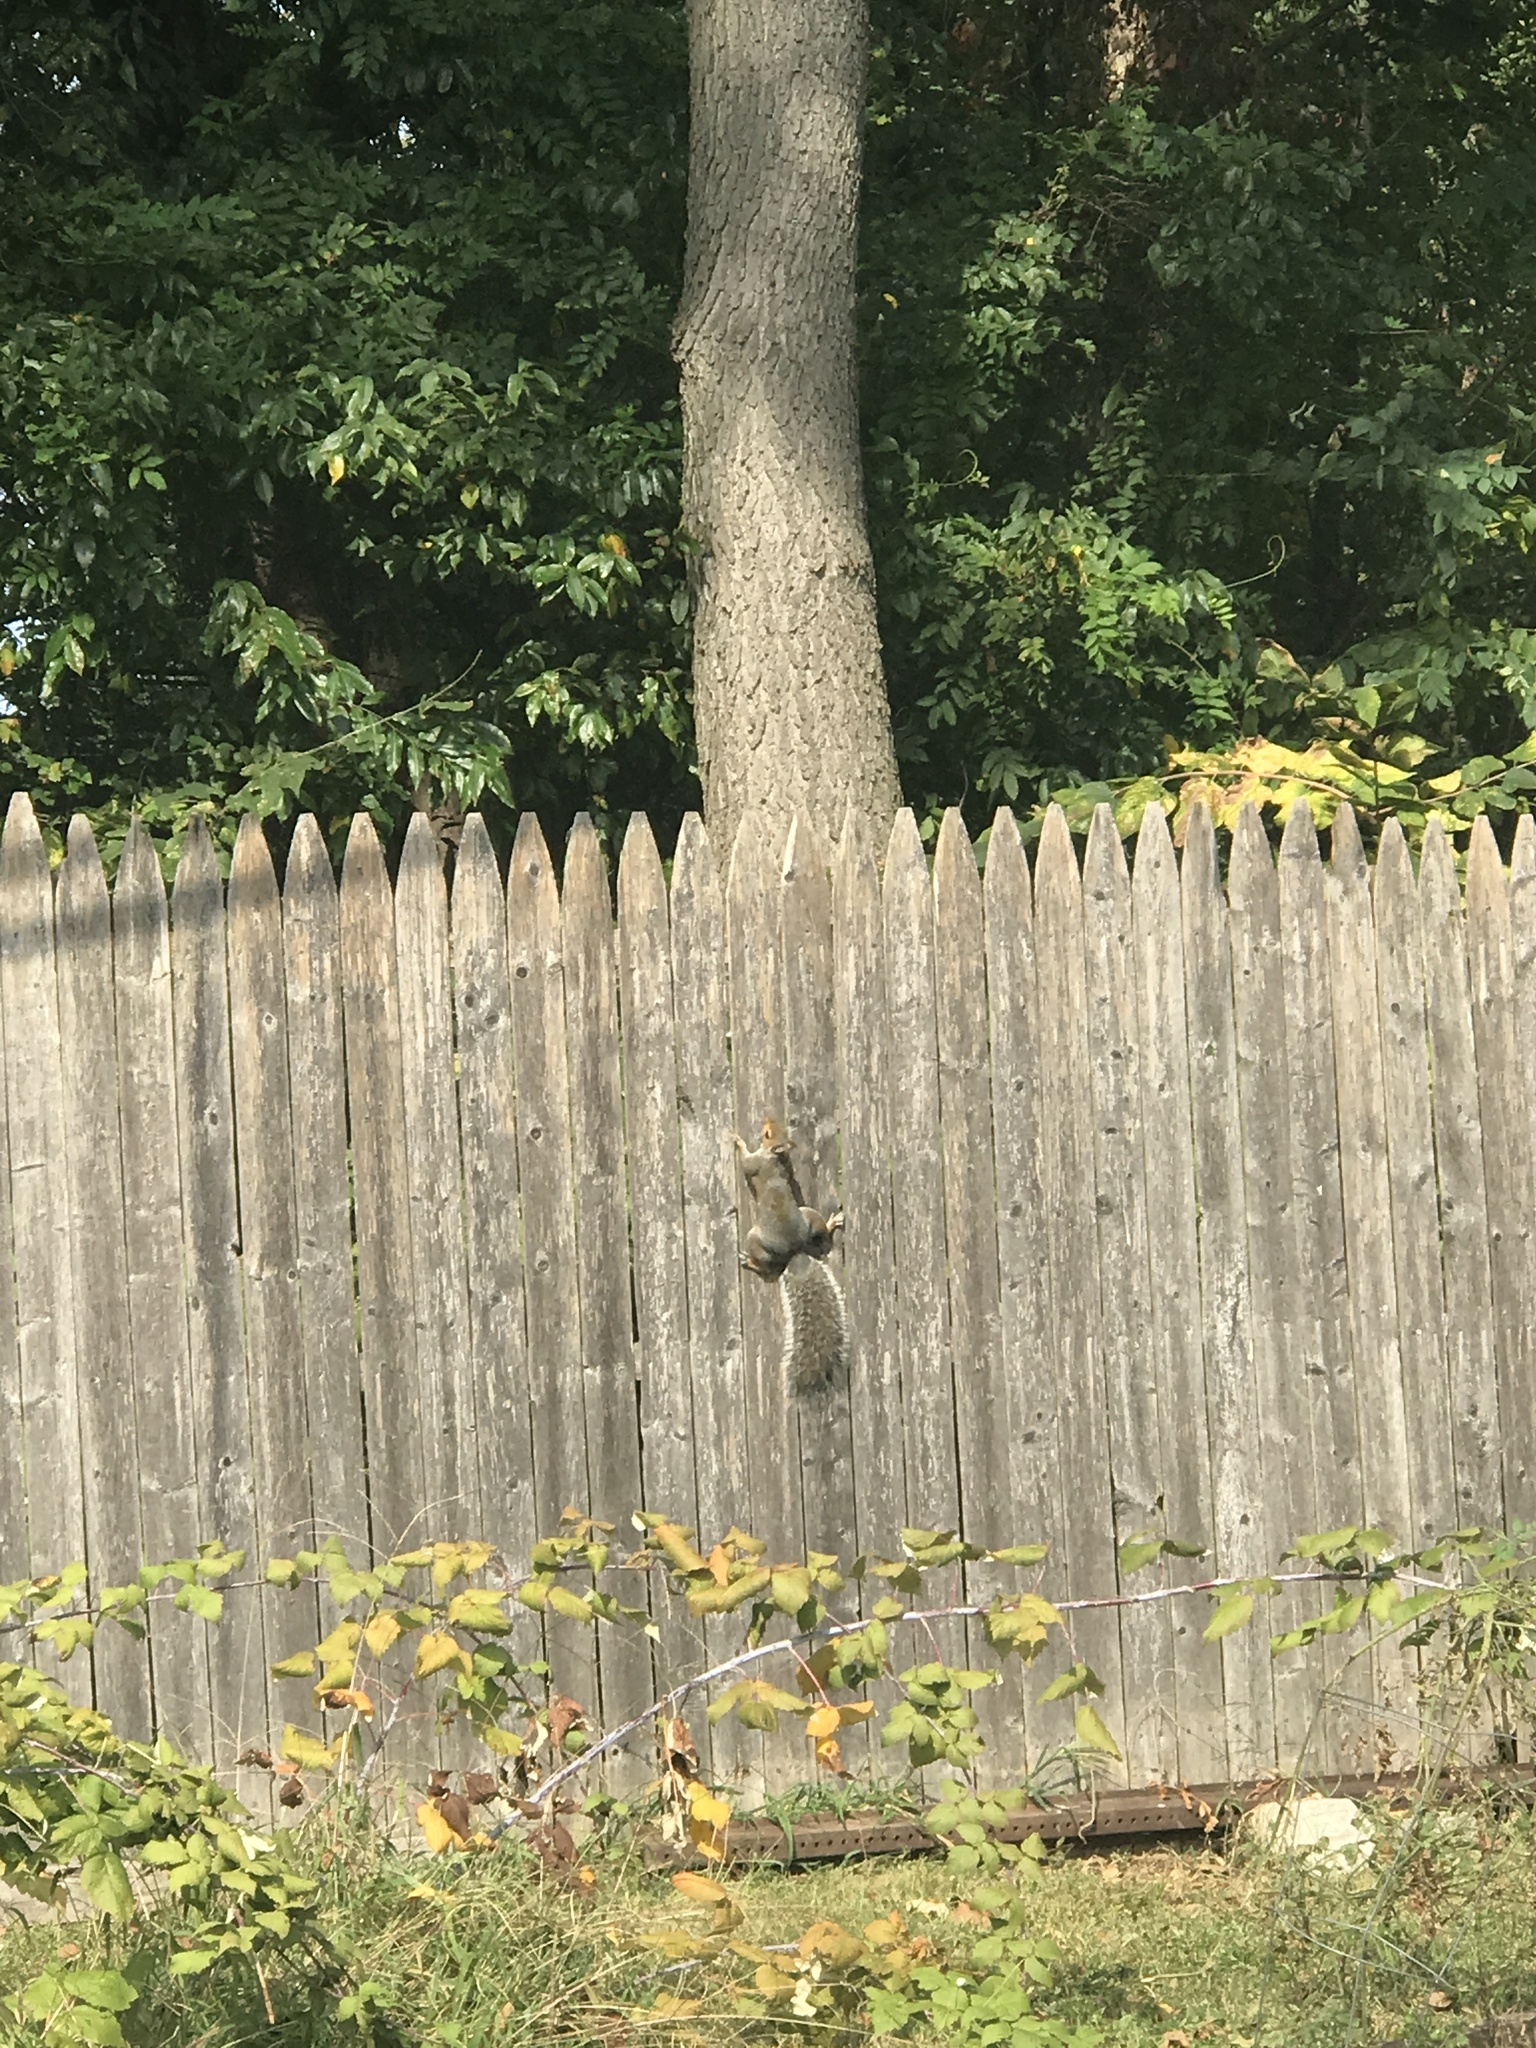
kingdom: Animalia
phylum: Chordata
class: Mammalia
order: Rodentia
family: Sciuridae
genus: Sciurus
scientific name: Sciurus carolinensis
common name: Eastern gray squirrel
